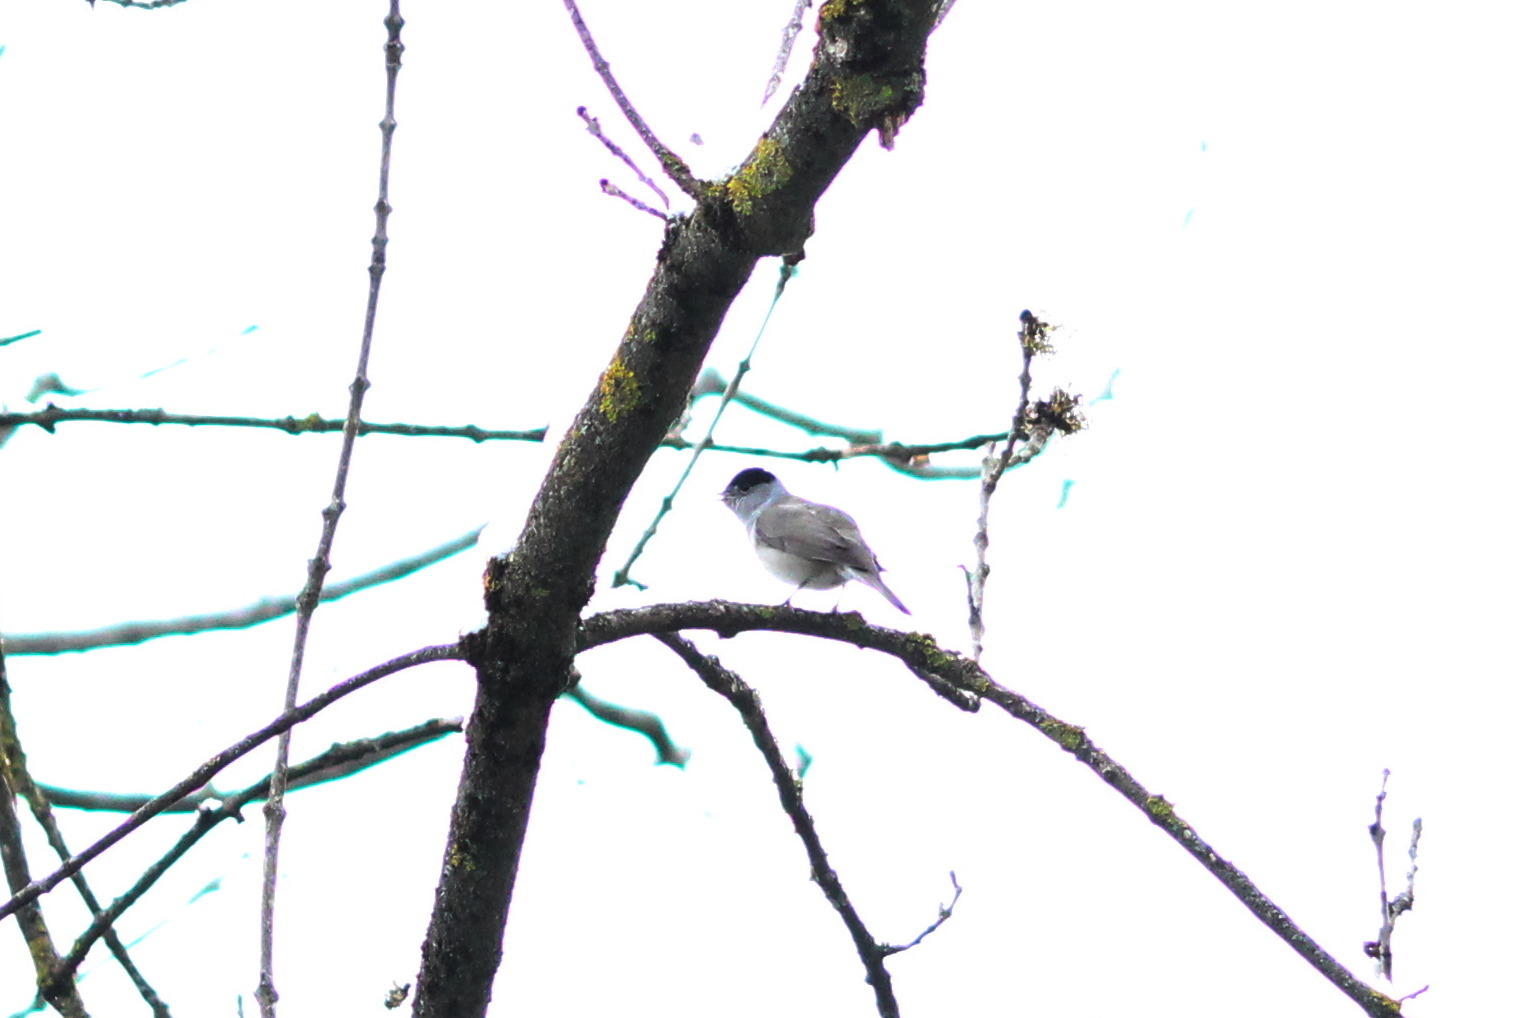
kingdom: Animalia
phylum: Chordata
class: Aves
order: Passeriformes
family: Sylviidae
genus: Sylvia
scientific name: Sylvia atricapilla
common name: Eurasian blackcap
